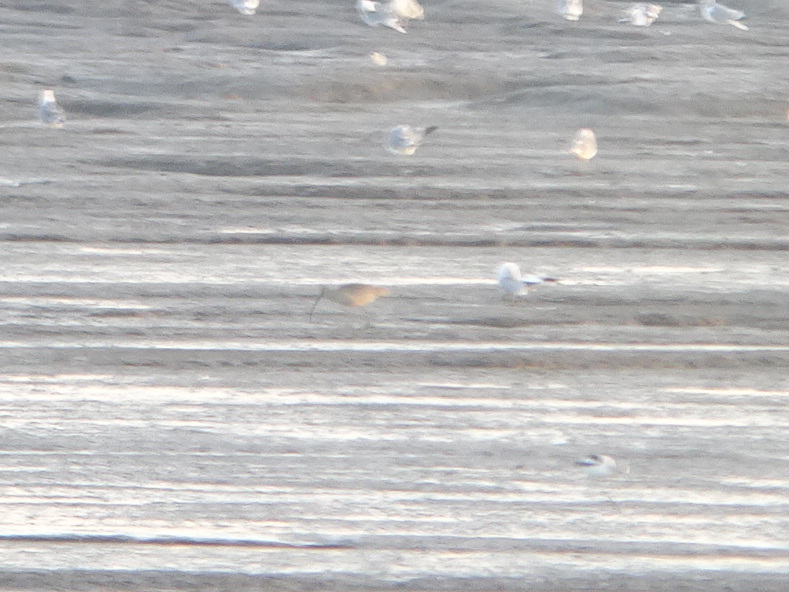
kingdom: Animalia
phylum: Chordata
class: Aves
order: Charadriiformes
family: Scolopacidae
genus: Numenius
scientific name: Numenius americanus
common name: Long-billed curlew
